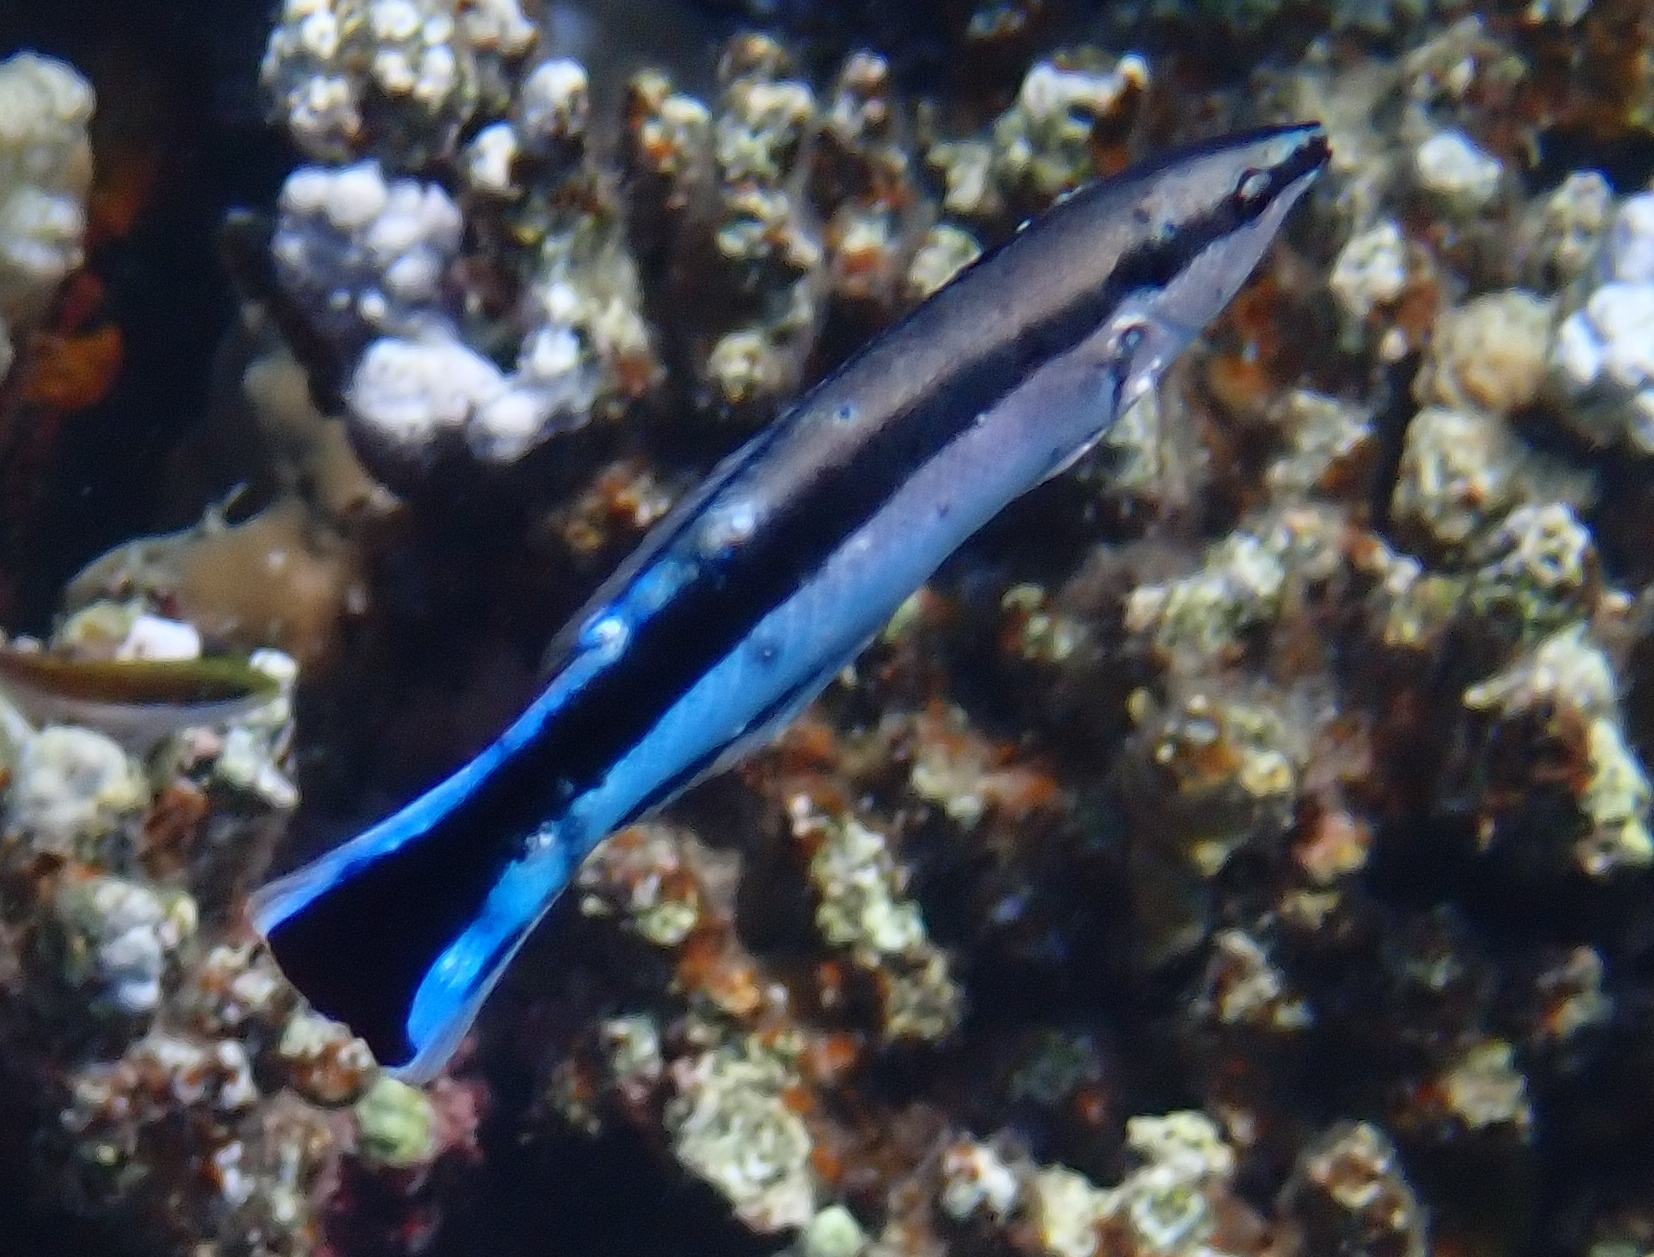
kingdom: Animalia
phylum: Chordata
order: Perciformes
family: Labridae
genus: Labroides
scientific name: Labroides dimidiatus
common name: Blue diesel wrasse
